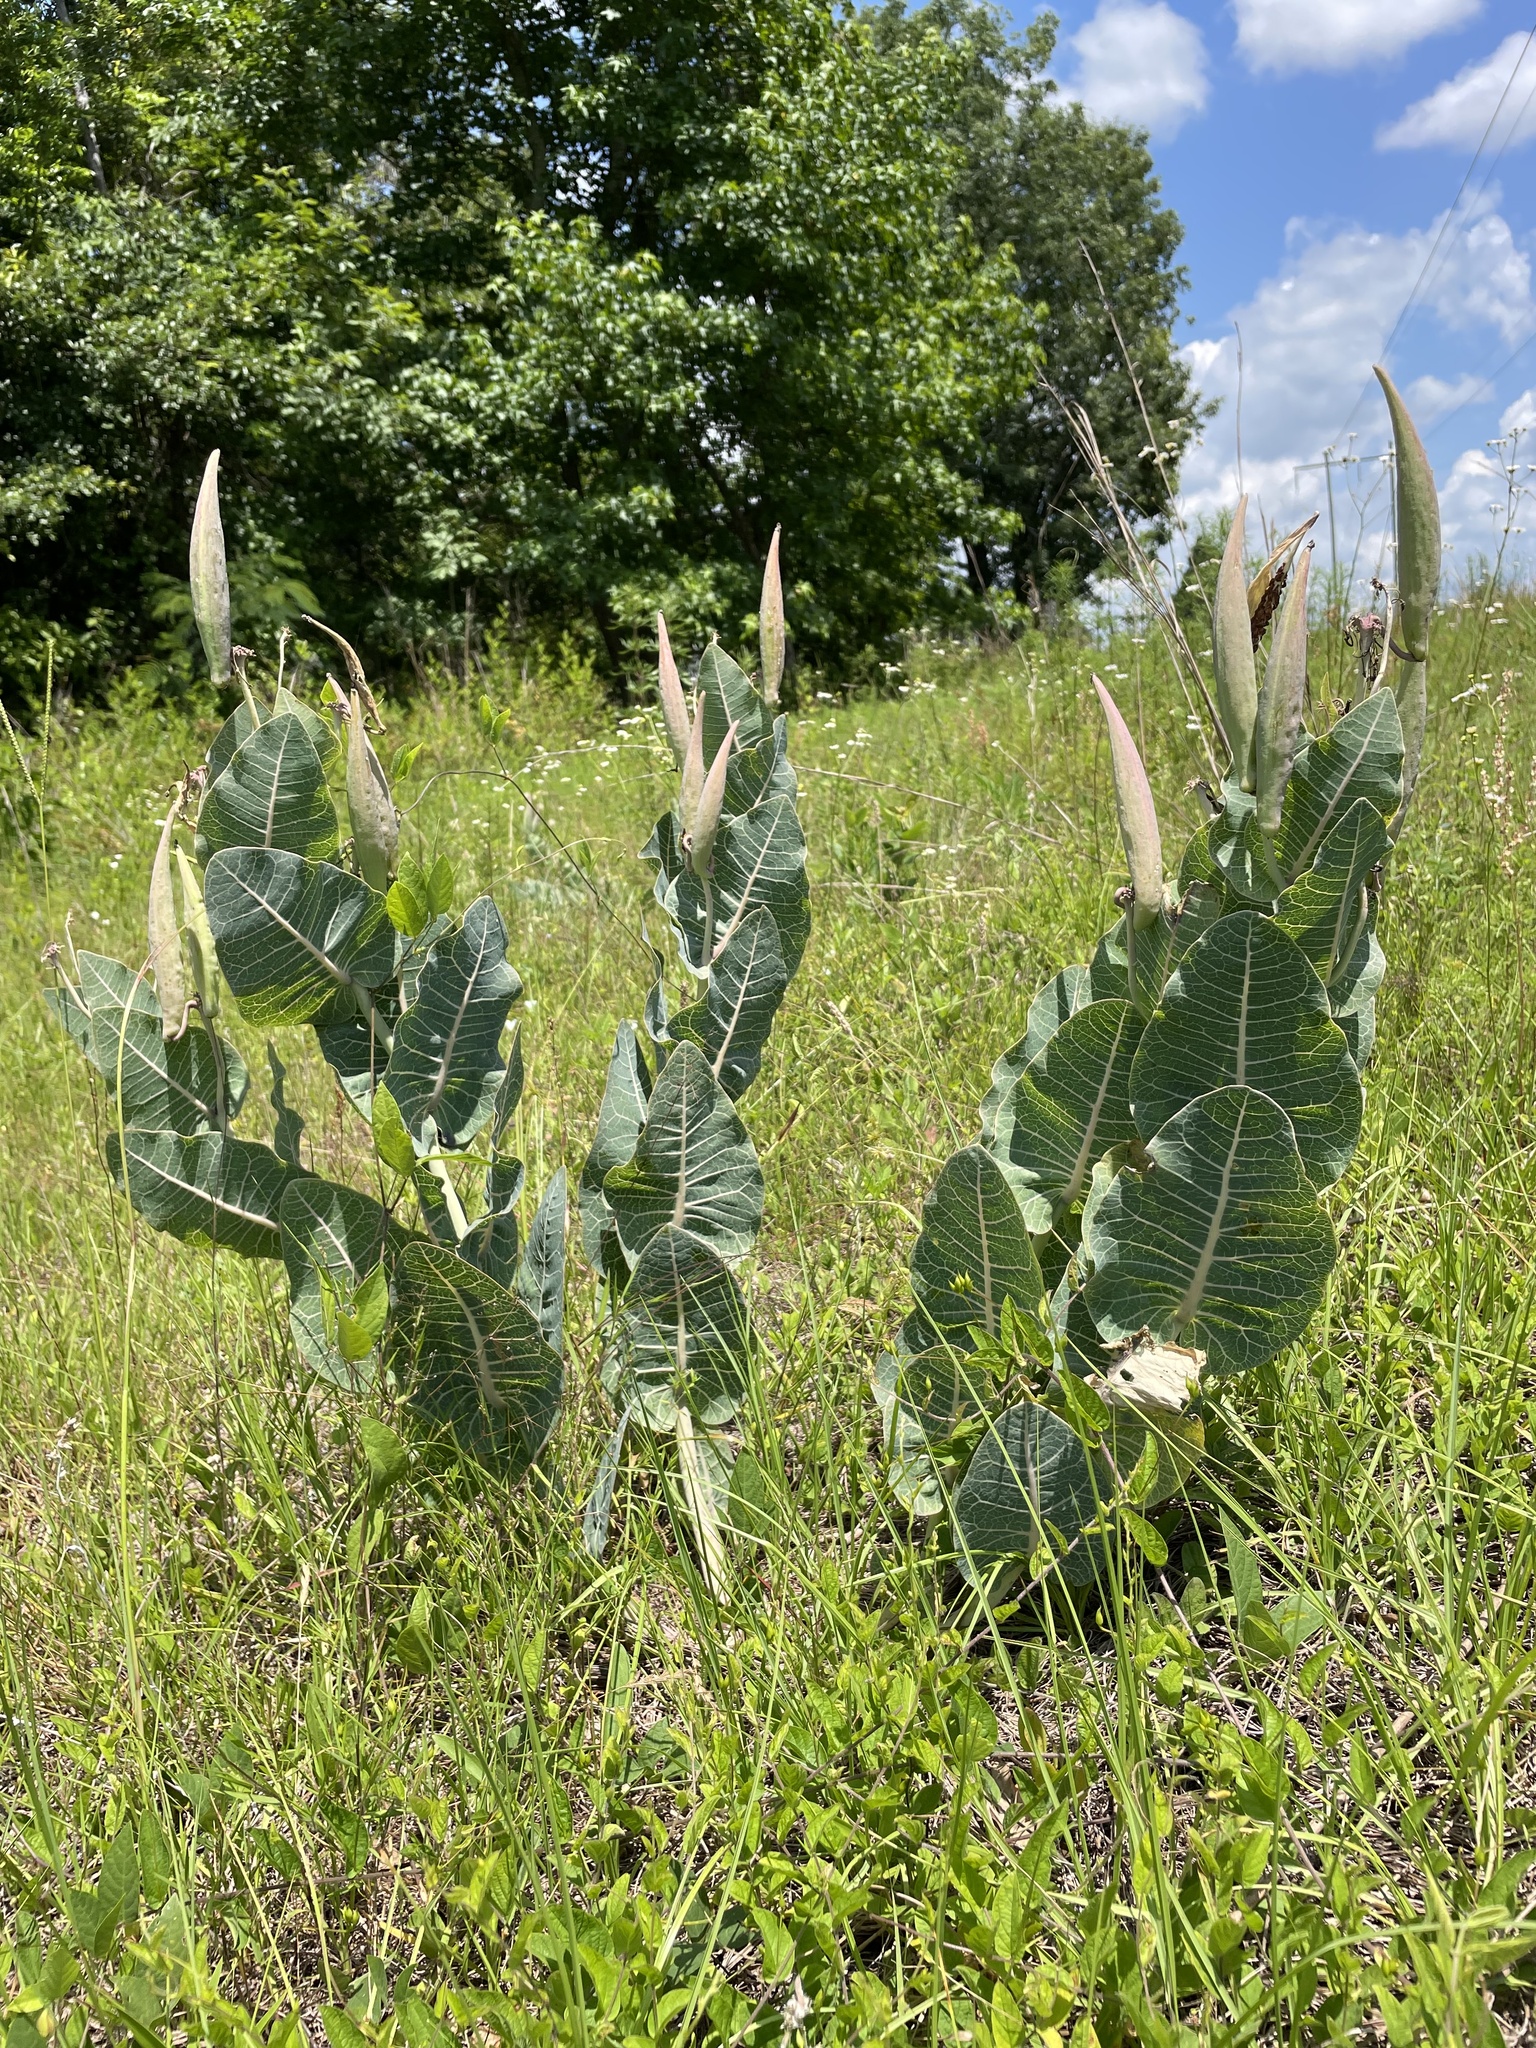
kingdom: Plantae
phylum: Tracheophyta
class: Magnoliopsida
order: Gentianales
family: Apocynaceae
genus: Asclepias
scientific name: Asclepias humistrata
